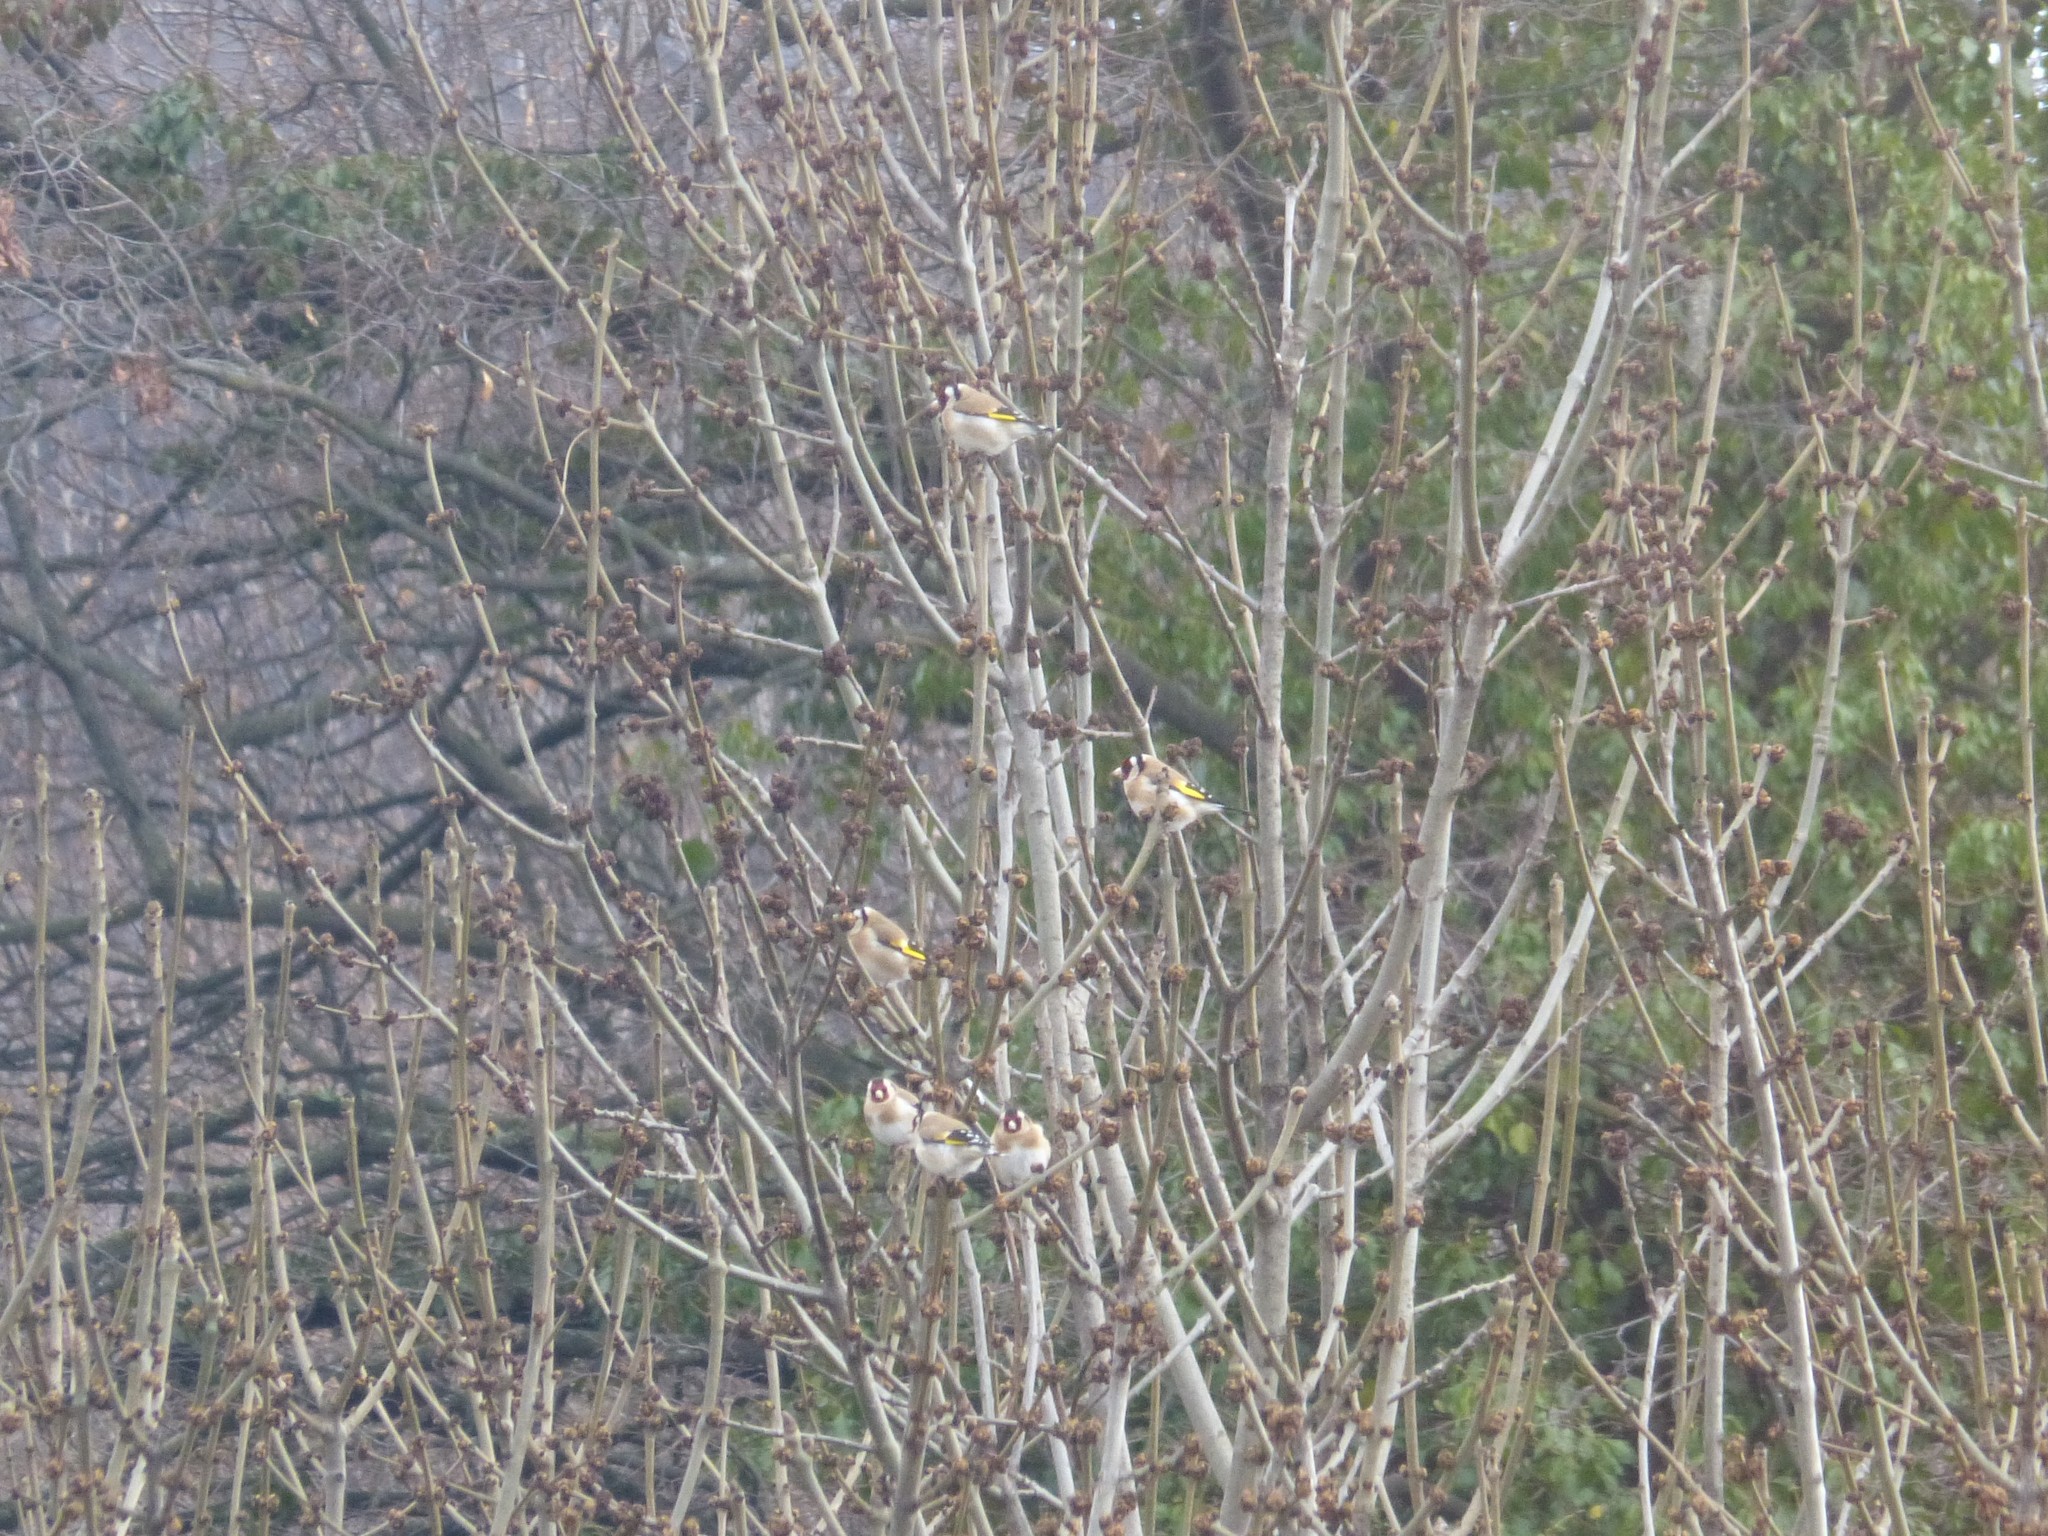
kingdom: Animalia
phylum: Chordata
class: Aves
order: Passeriformes
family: Fringillidae
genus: Carduelis
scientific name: Carduelis carduelis
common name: European goldfinch
